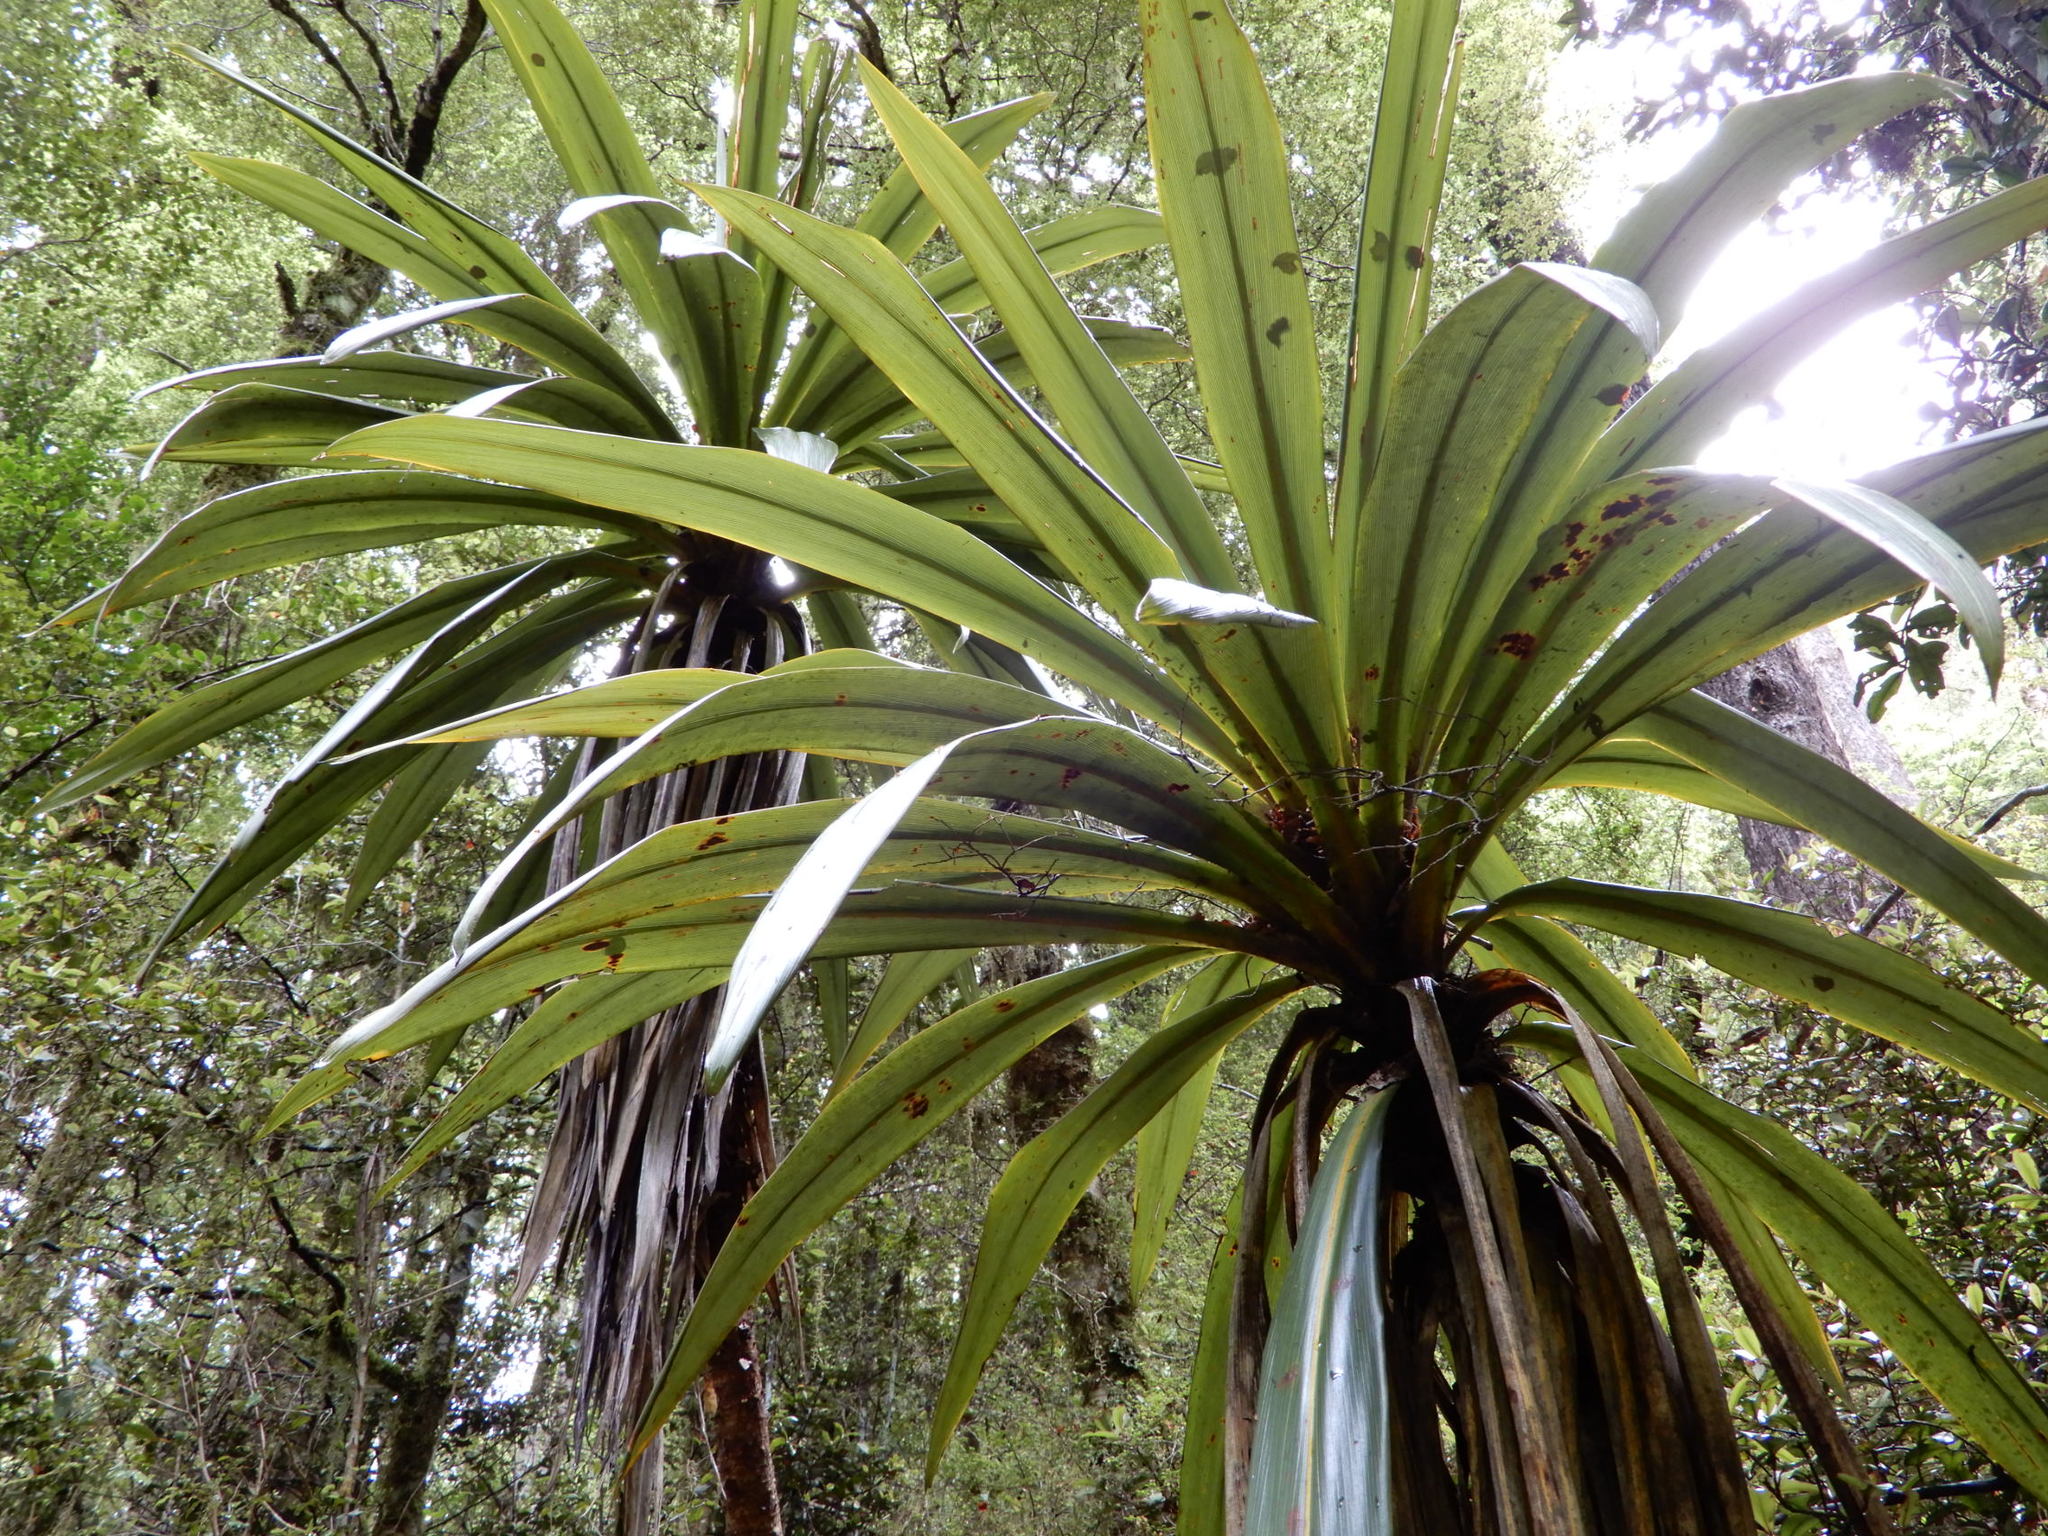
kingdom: Plantae
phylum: Tracheophyta
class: Liliopsida
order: Asparagales
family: Asparagaceae
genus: Cordyline
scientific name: Cordyline indivisa
